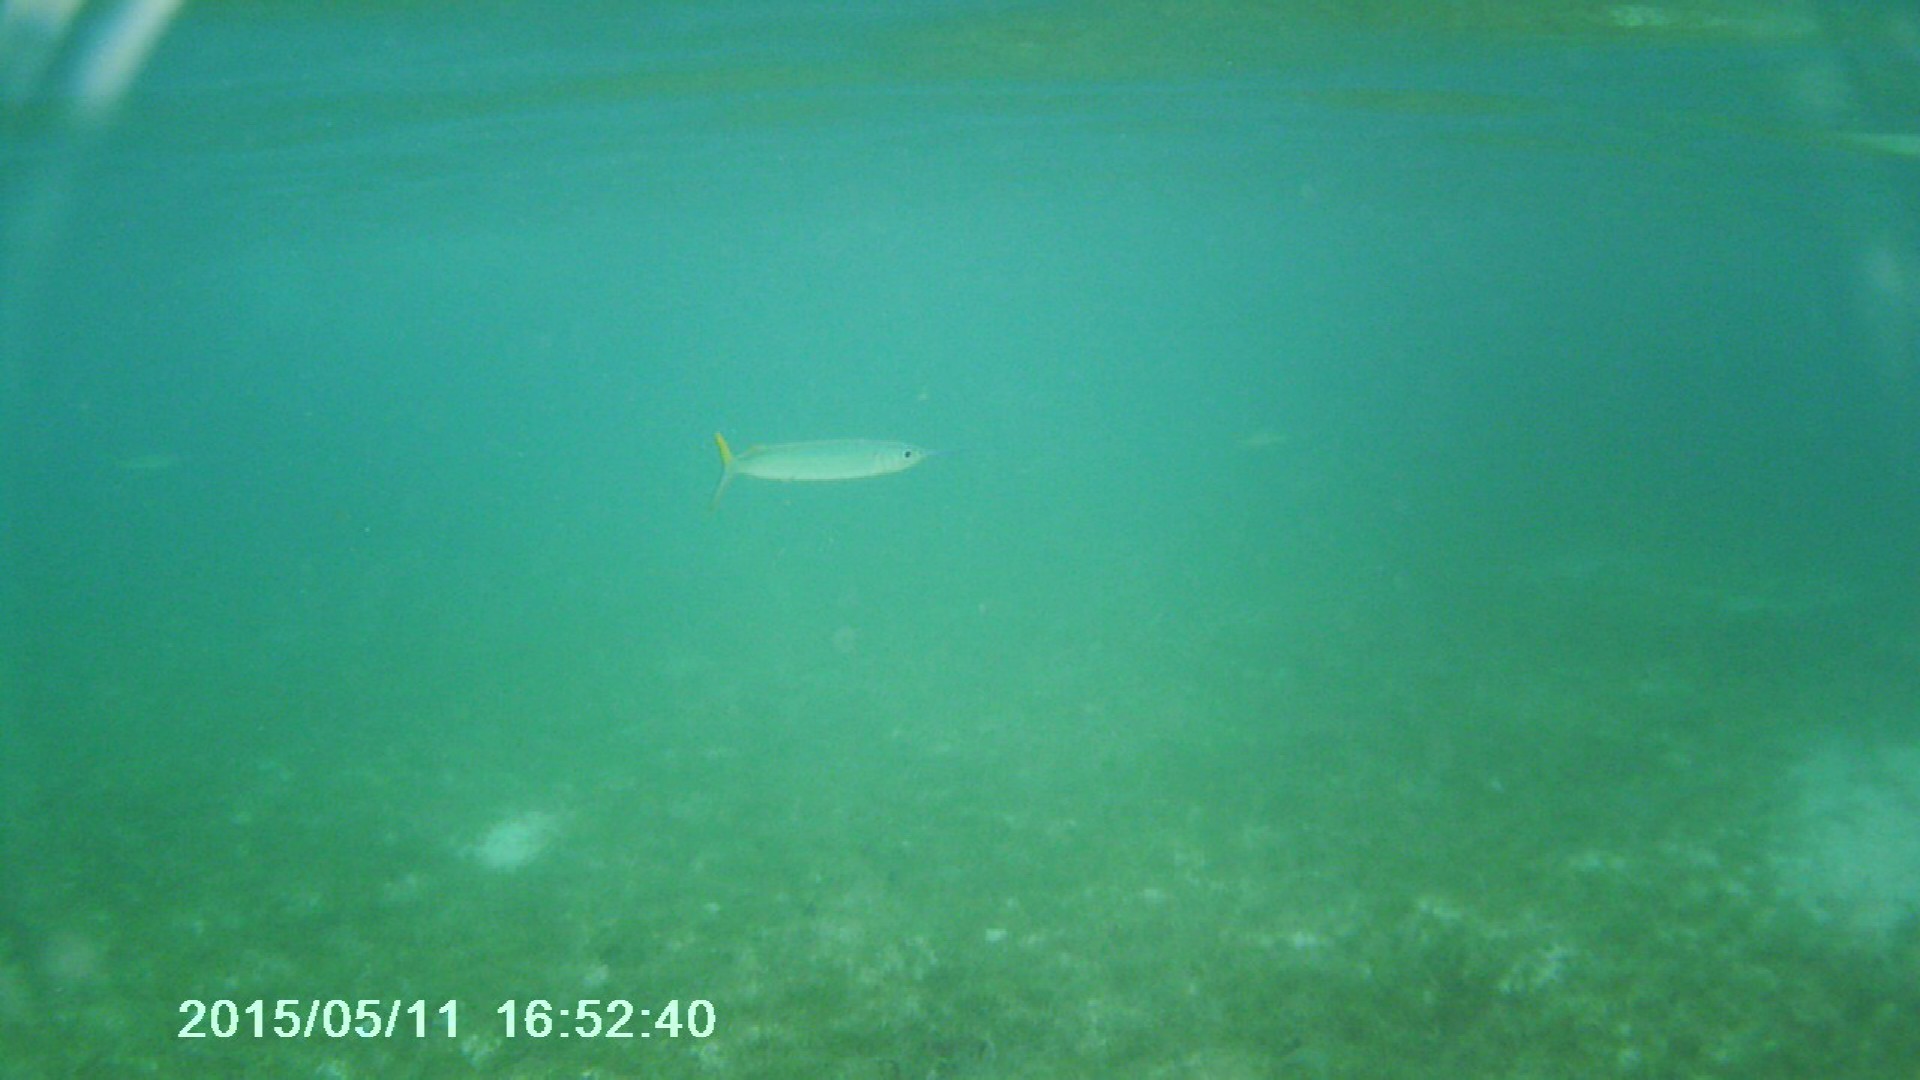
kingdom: Animalia
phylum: Chordata
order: Beloniformes
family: Hemiramphidae
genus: Hemiramphus
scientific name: Hemiramphus brasiliensis
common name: Ballyhoo
